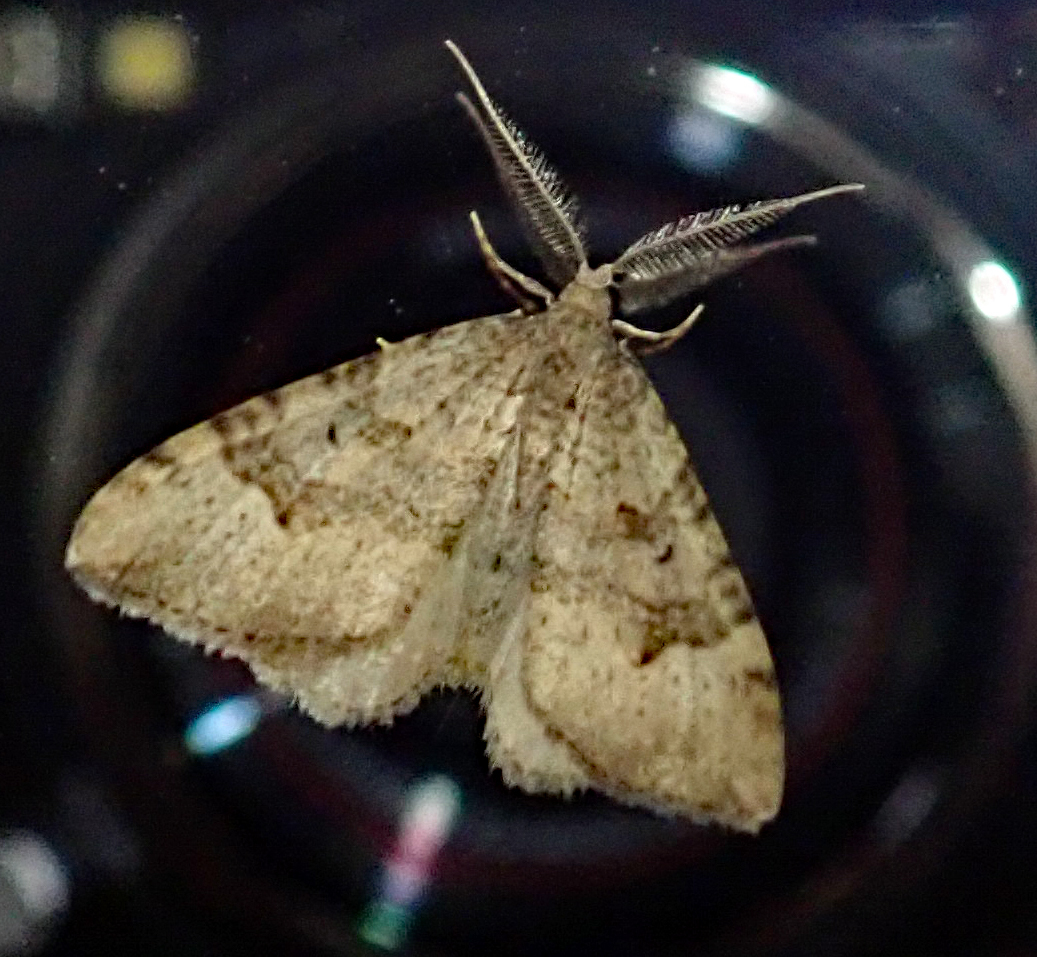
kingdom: Animalia
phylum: Arthropoda
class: Insecta
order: Lepidoptera
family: Geometridae
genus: Epyaxa
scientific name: Epyaxa rosearia
